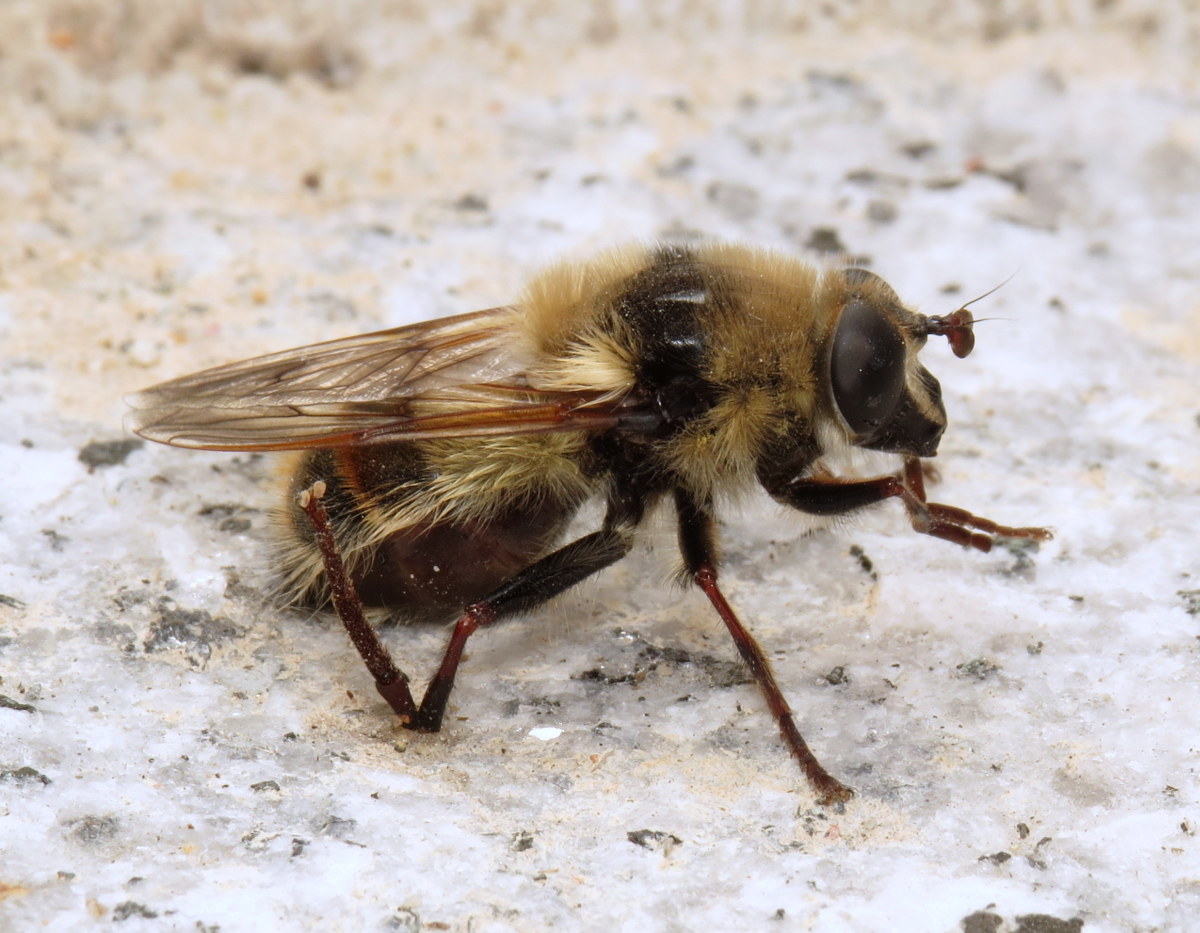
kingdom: Animalia
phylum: Arthropoda
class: Insecta
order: Diptera
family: Syrphidae
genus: Criorhina
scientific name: Criorhina verbosa
